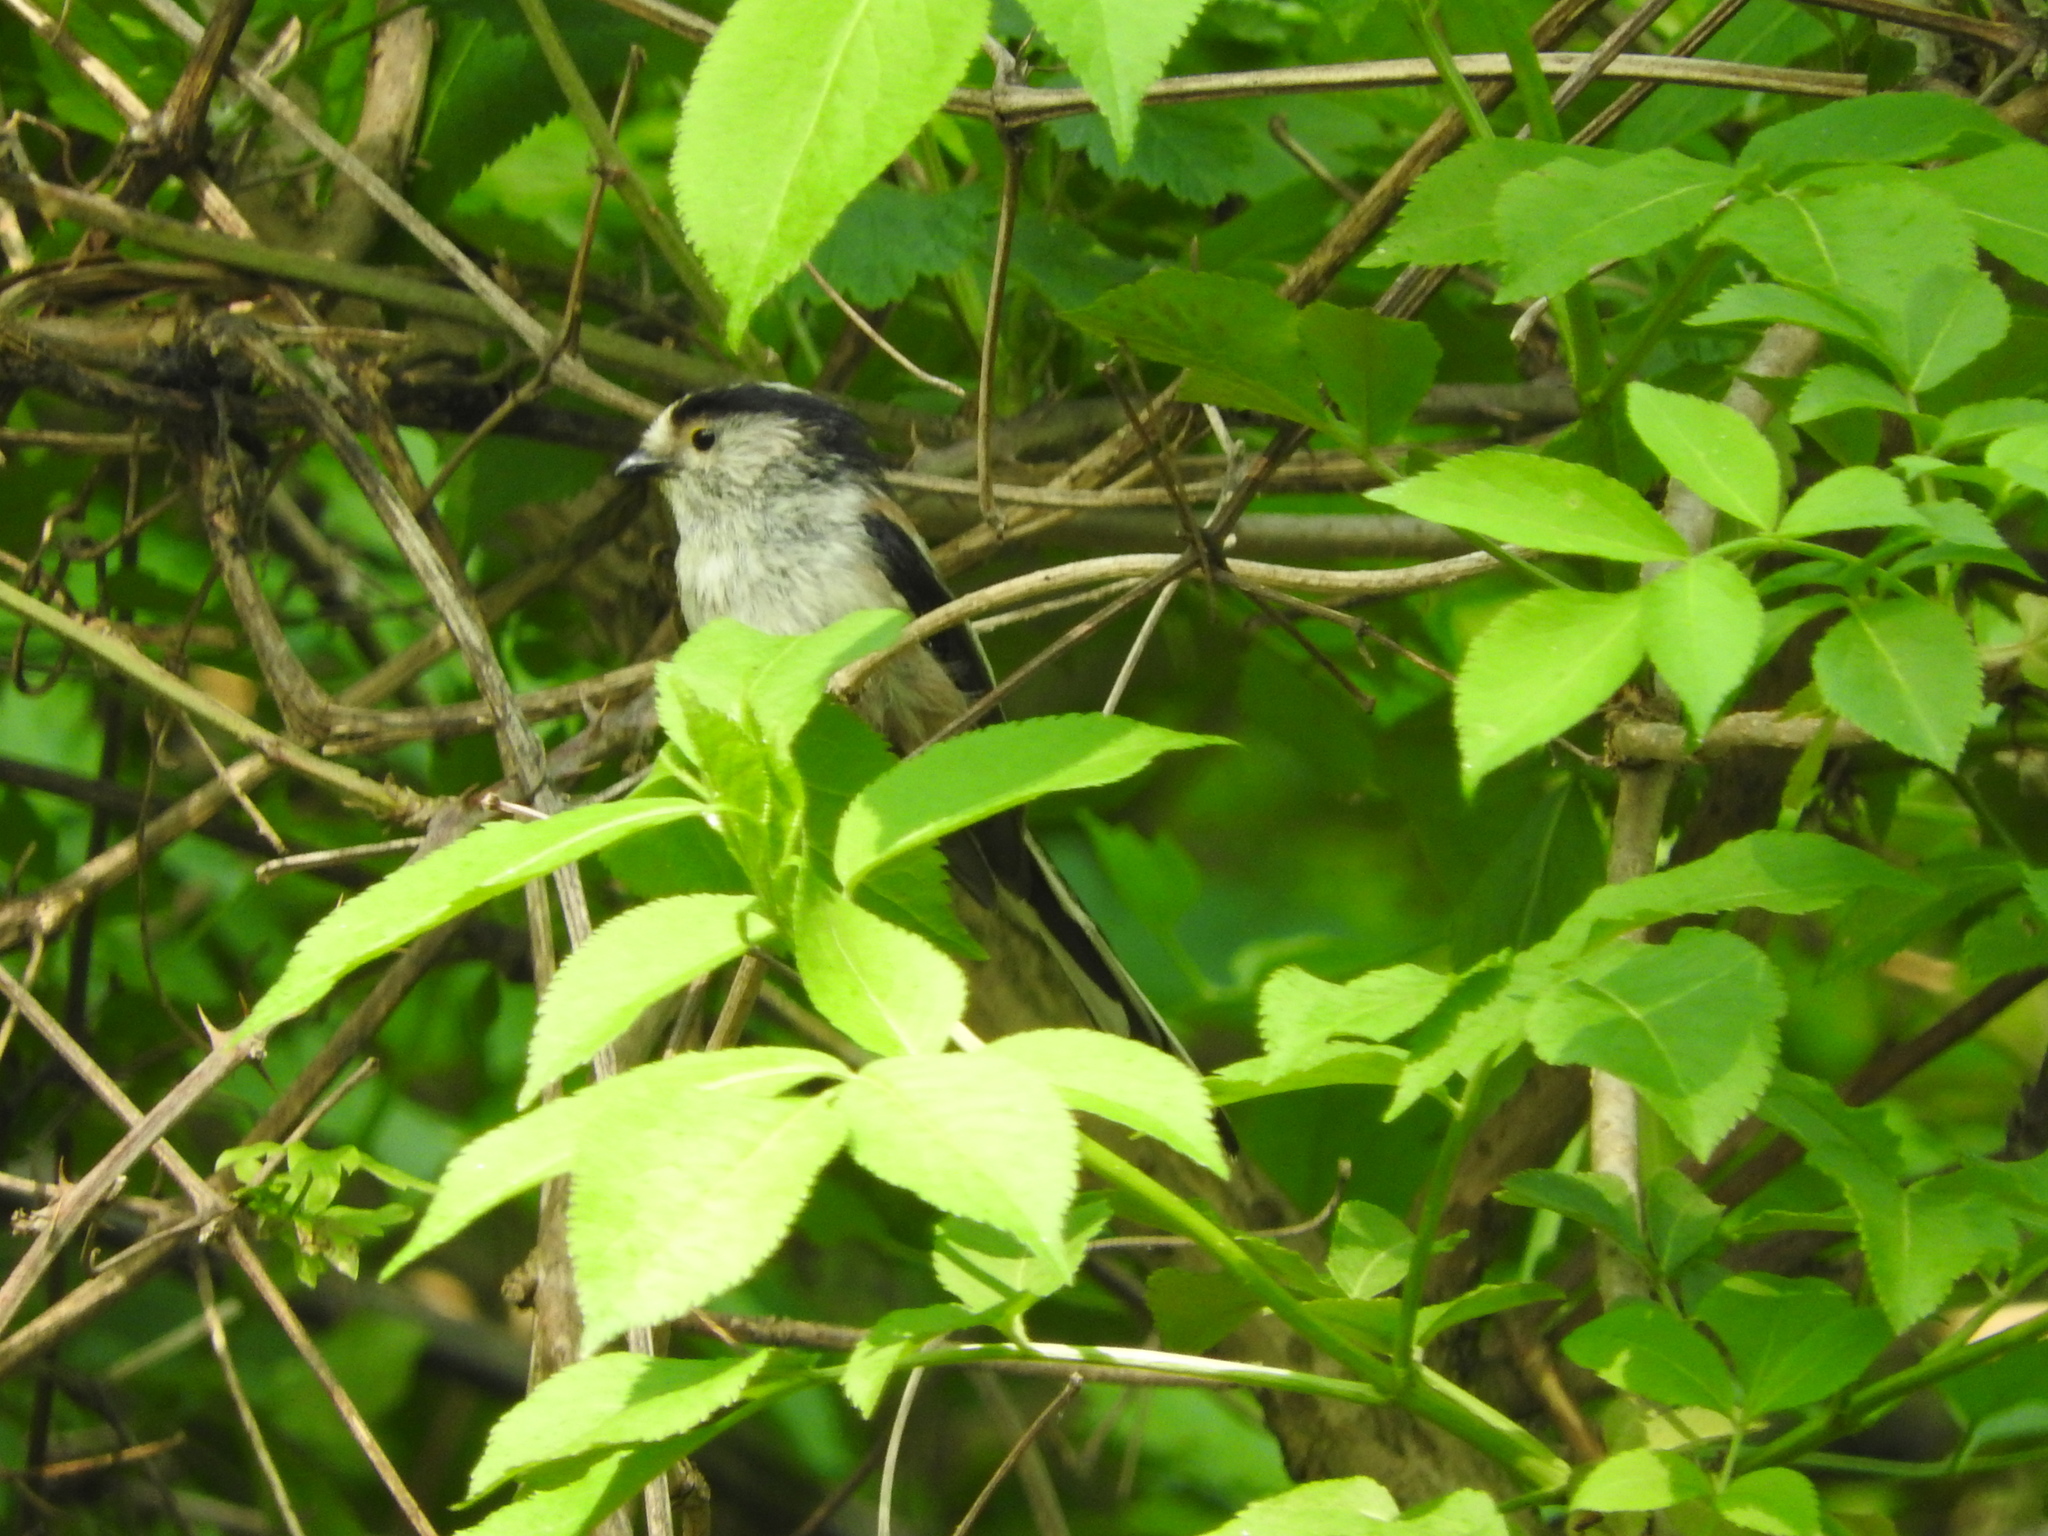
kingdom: Animalia
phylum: Chordata
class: Aves
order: Passeriformes
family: Aegithalidae
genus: Aegithalos
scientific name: Aegithalos caudatus
